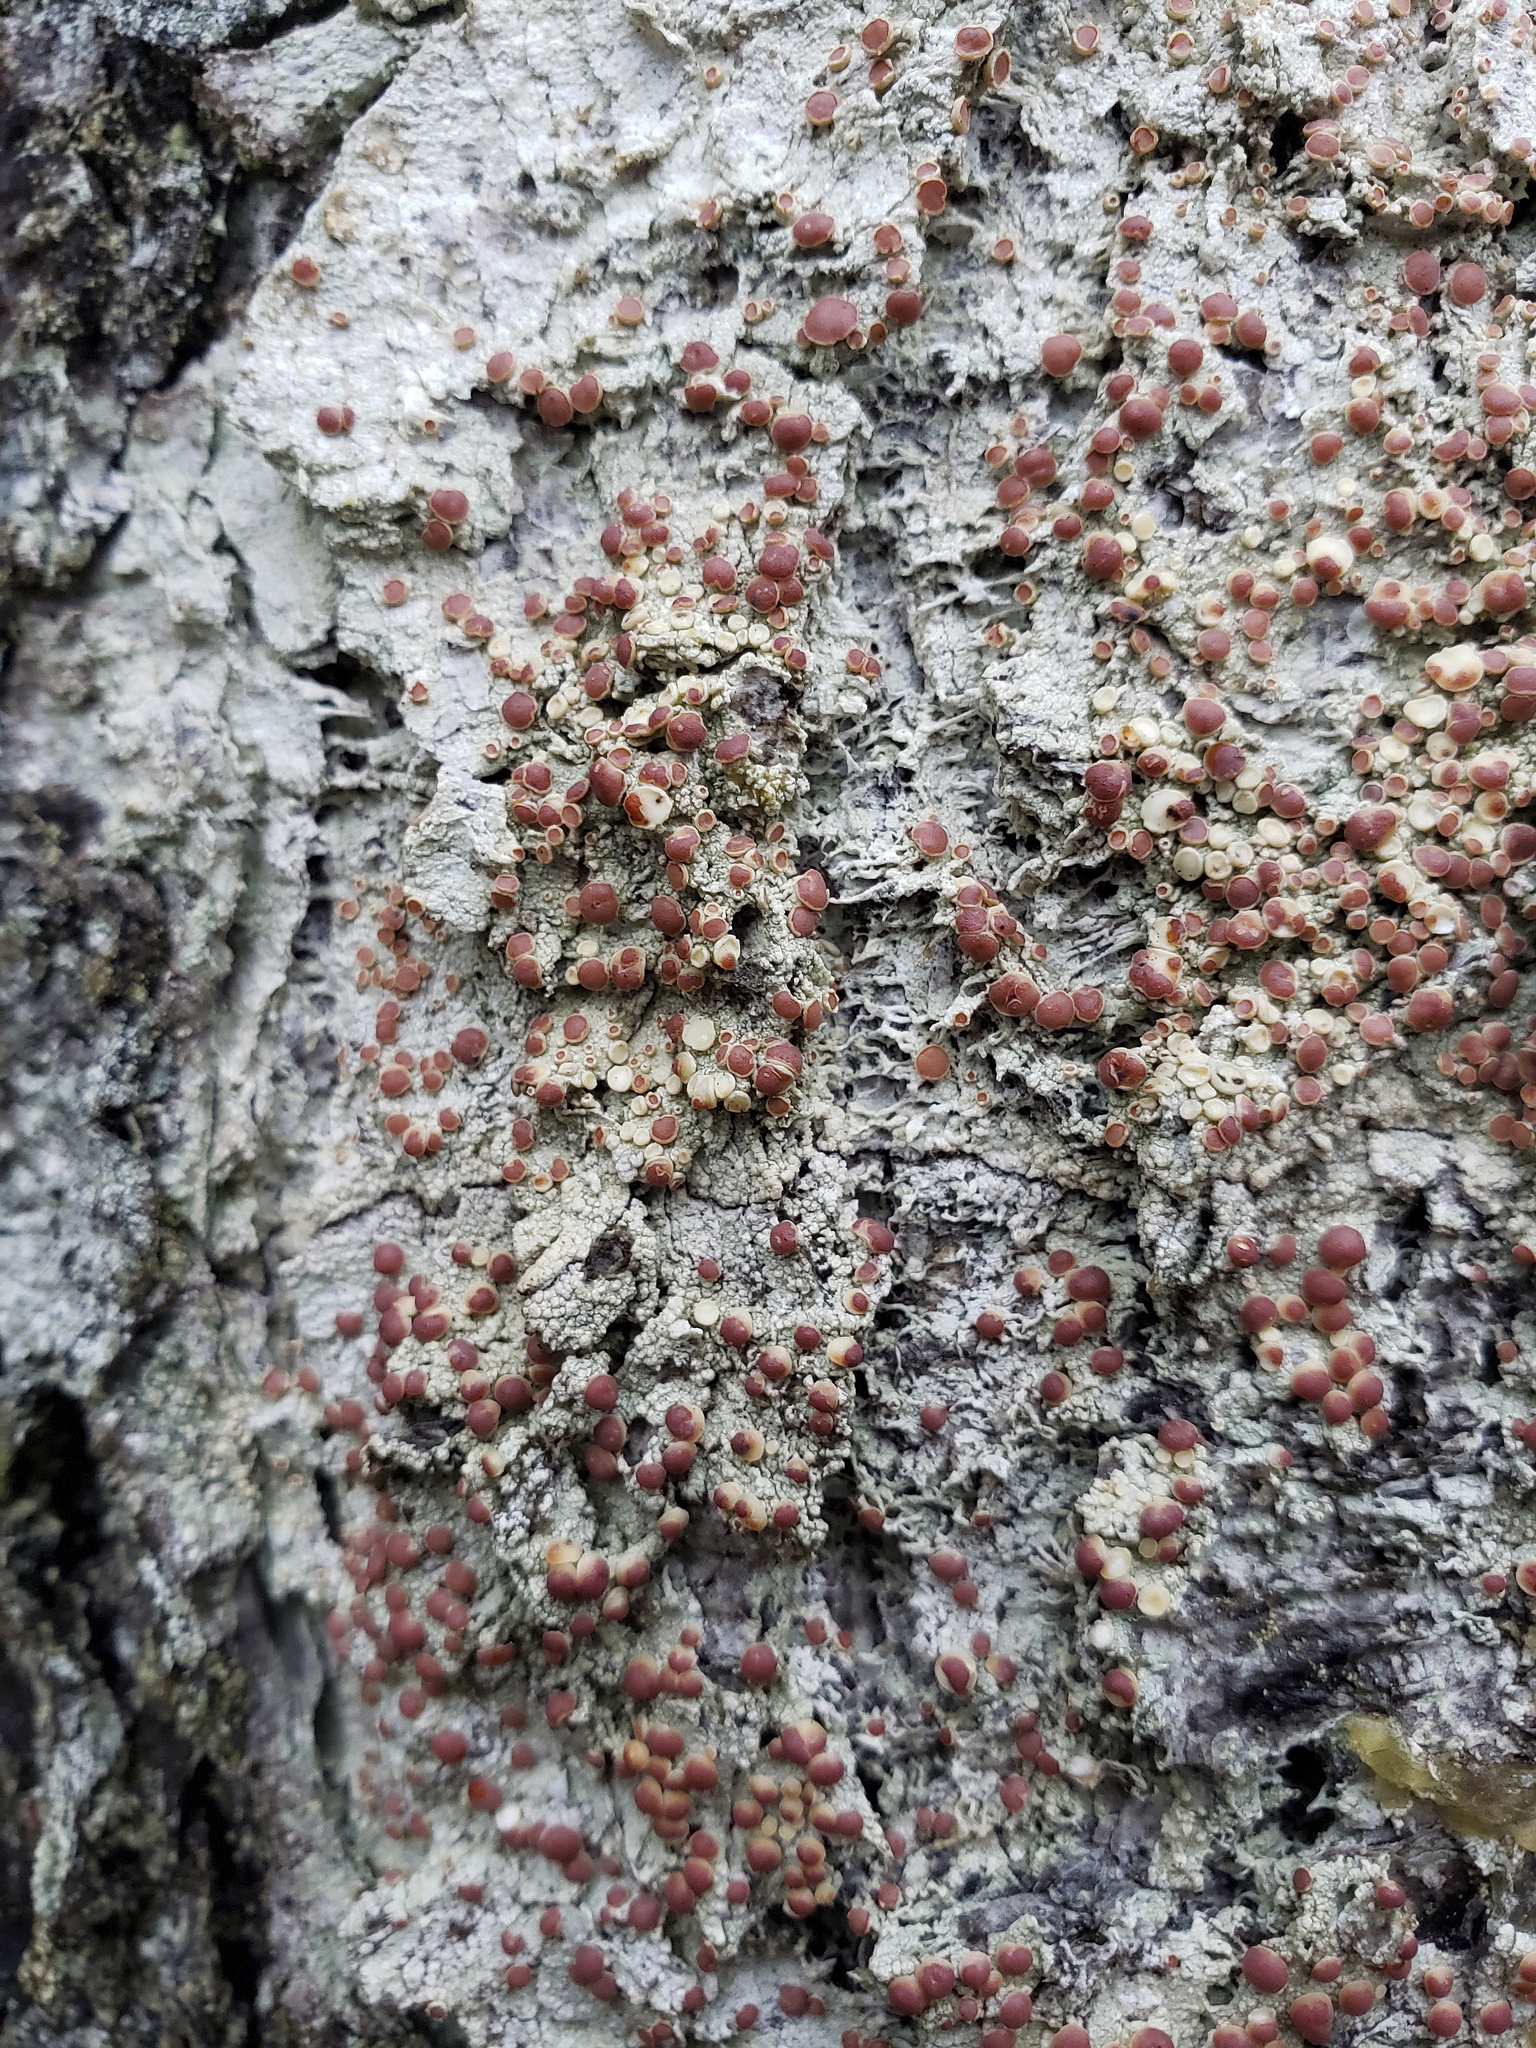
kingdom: Fungi
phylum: Ascomycota
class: Lecanoromycetes
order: Lecanorales
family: Sarrameanaceae
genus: Loxospora
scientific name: Loxospora ochrophaea
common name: Eastern ragged-rim lichen
